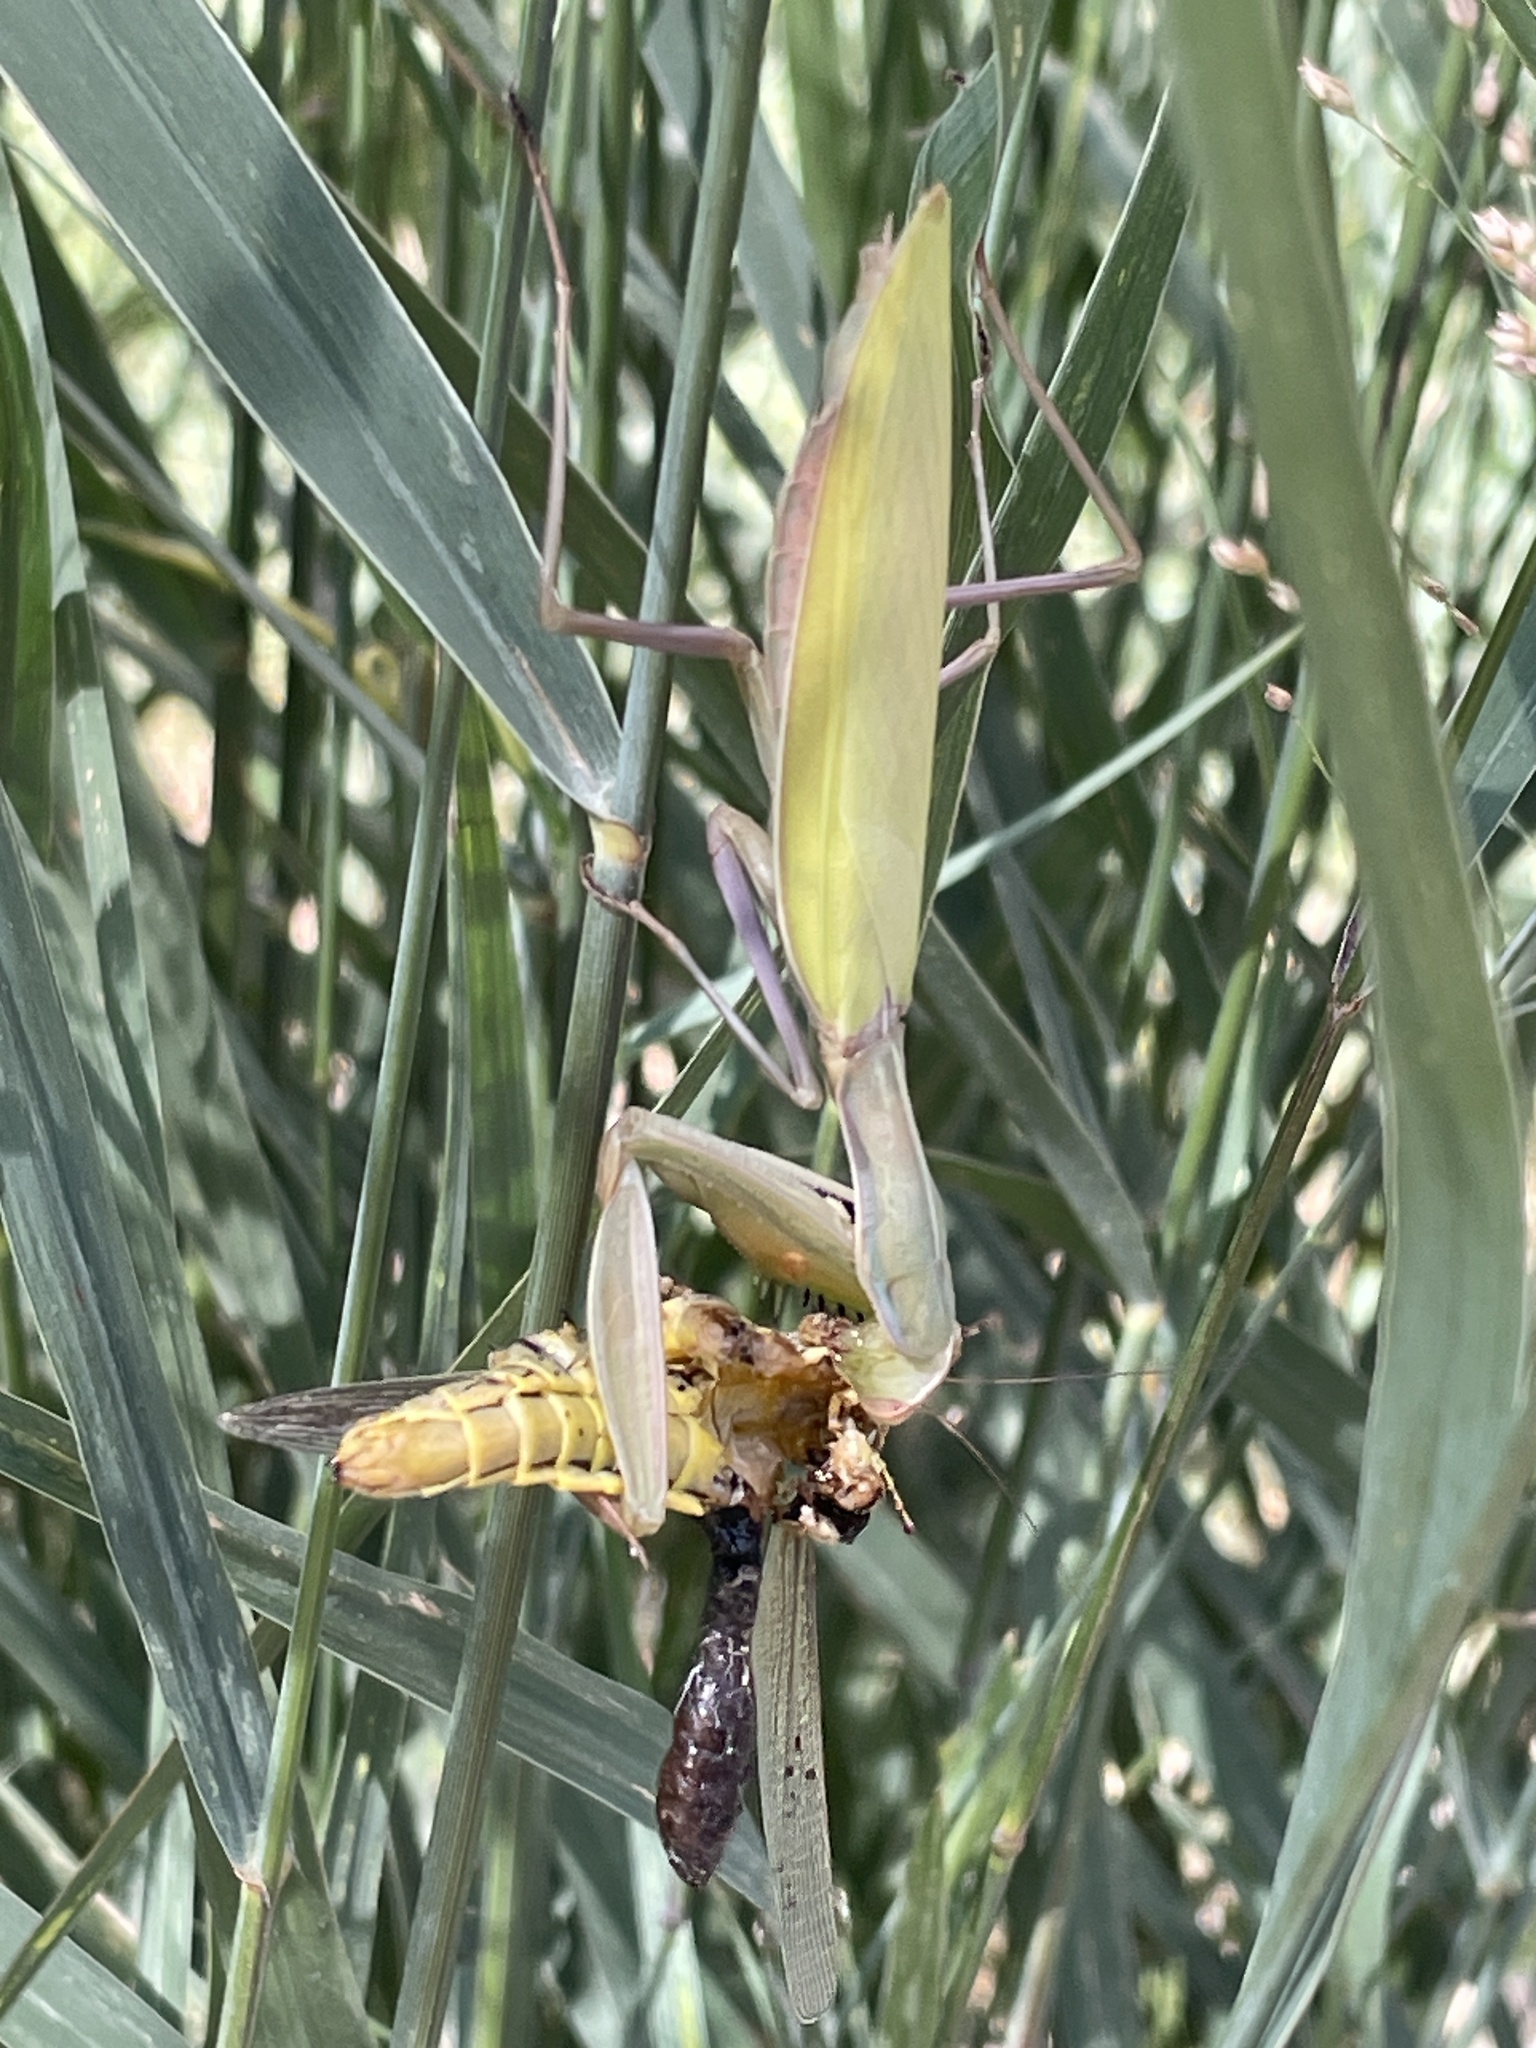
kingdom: Animalia
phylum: Arthropoda
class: Insecta
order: Mantodea
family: Mantidae
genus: Mantis
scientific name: Mantis religiosa
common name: Praying mantis
